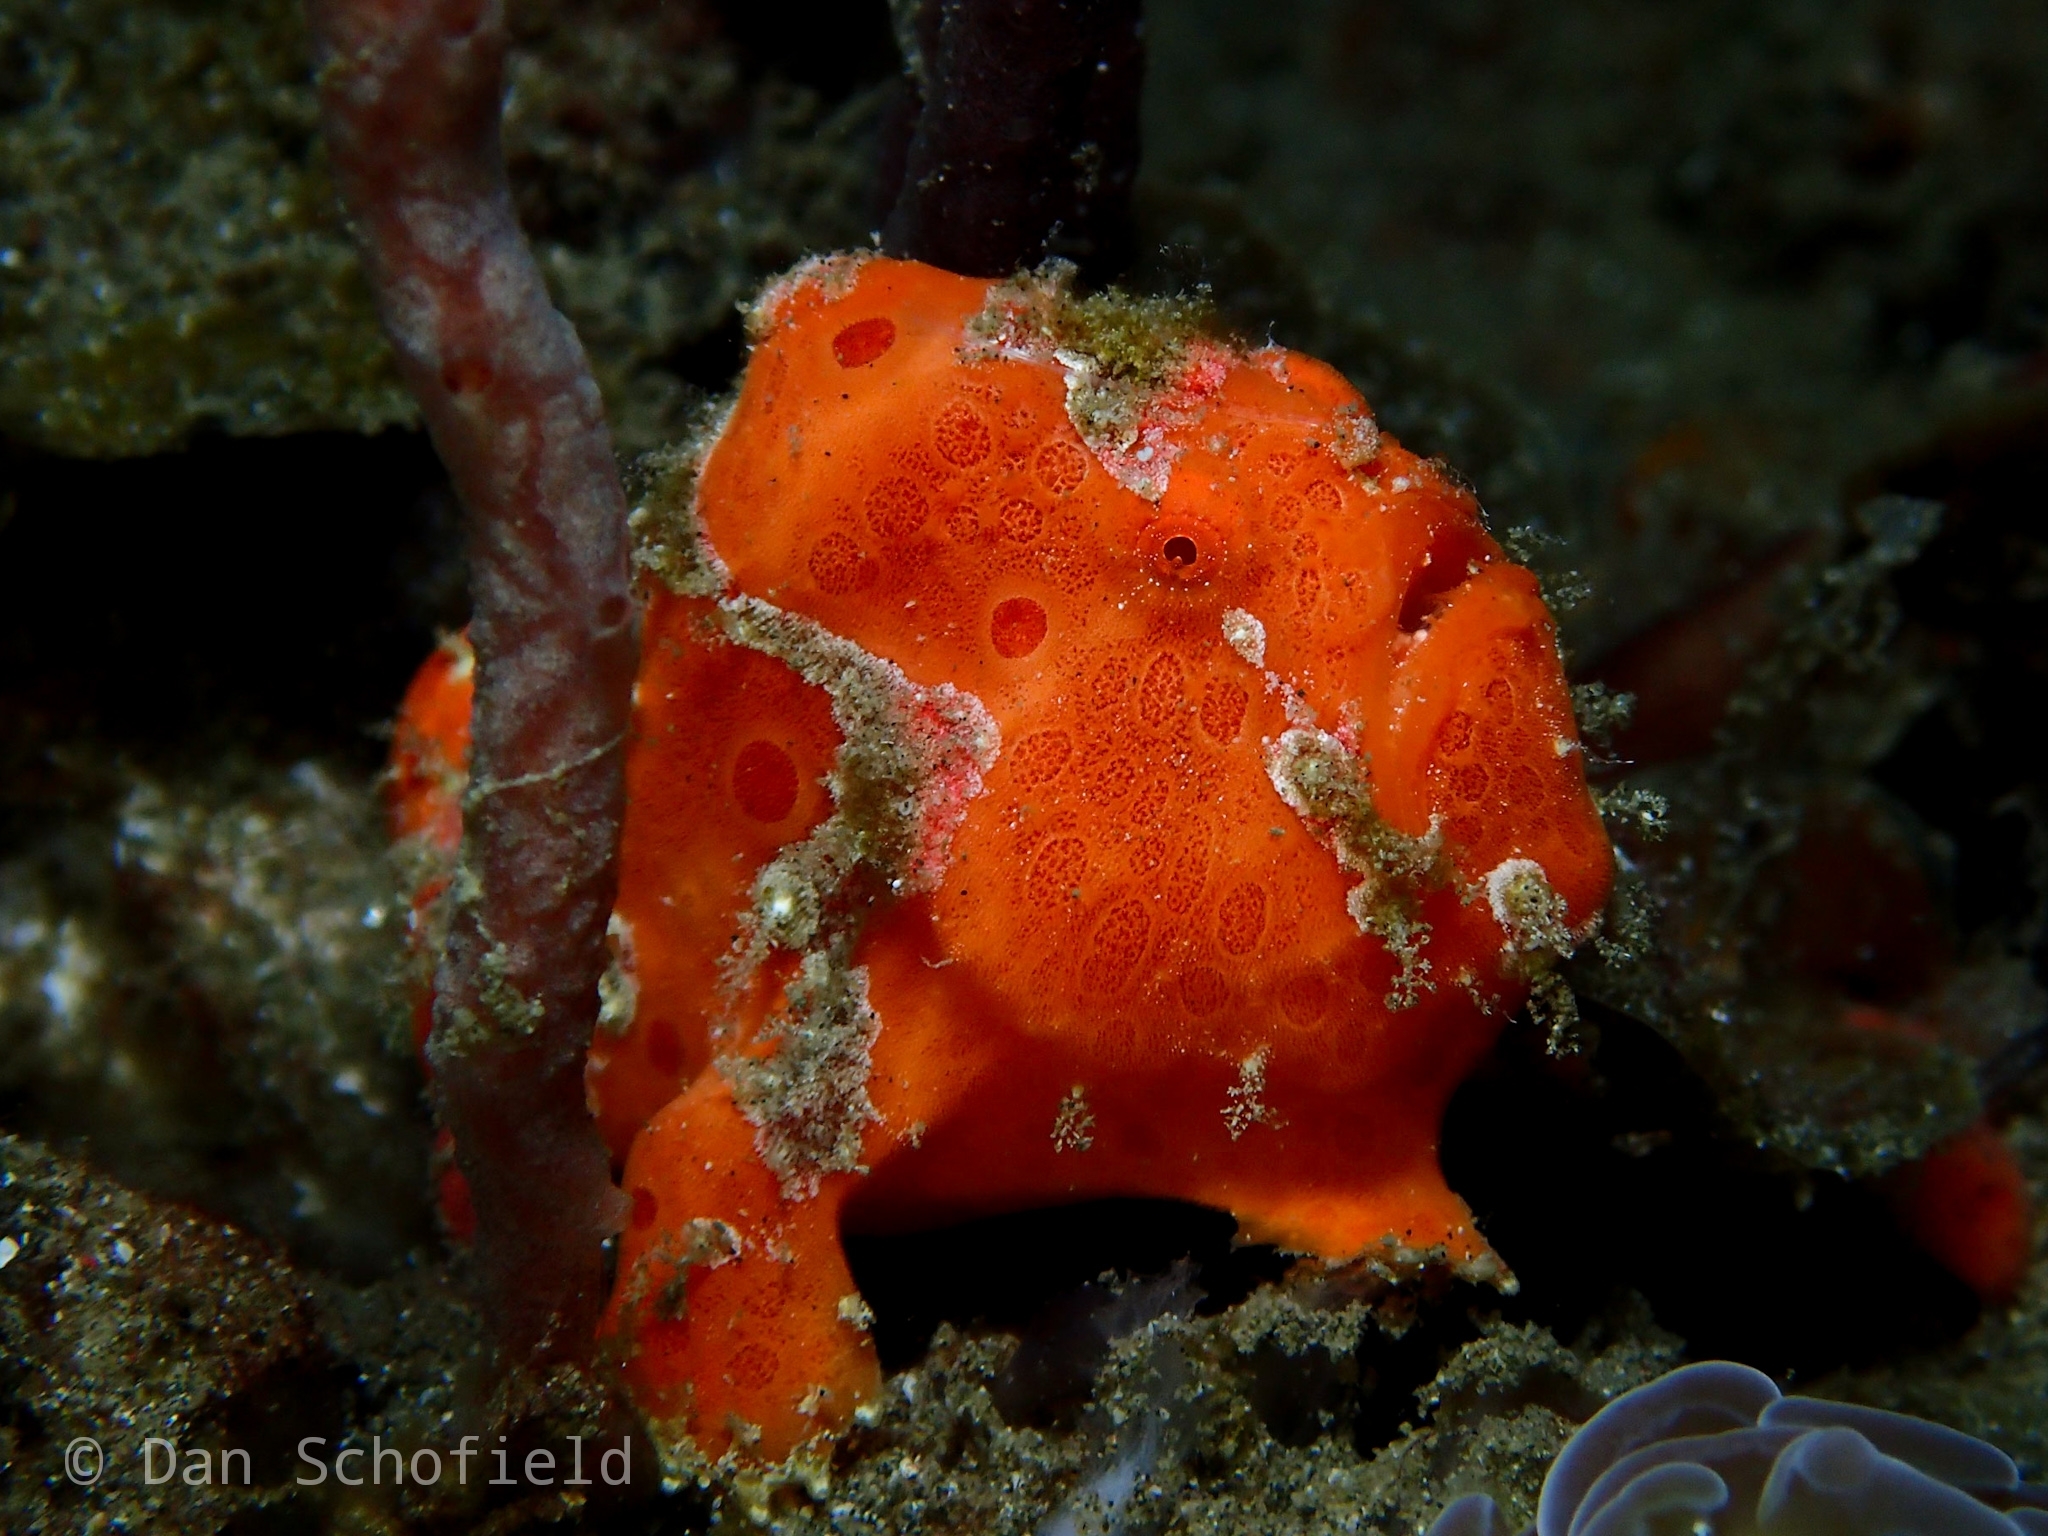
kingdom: Animalia
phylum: Chordata
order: Lophiiformes
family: Antennariidae
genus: Antennarius
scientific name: Antennarius pictus
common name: Painted frogfish
